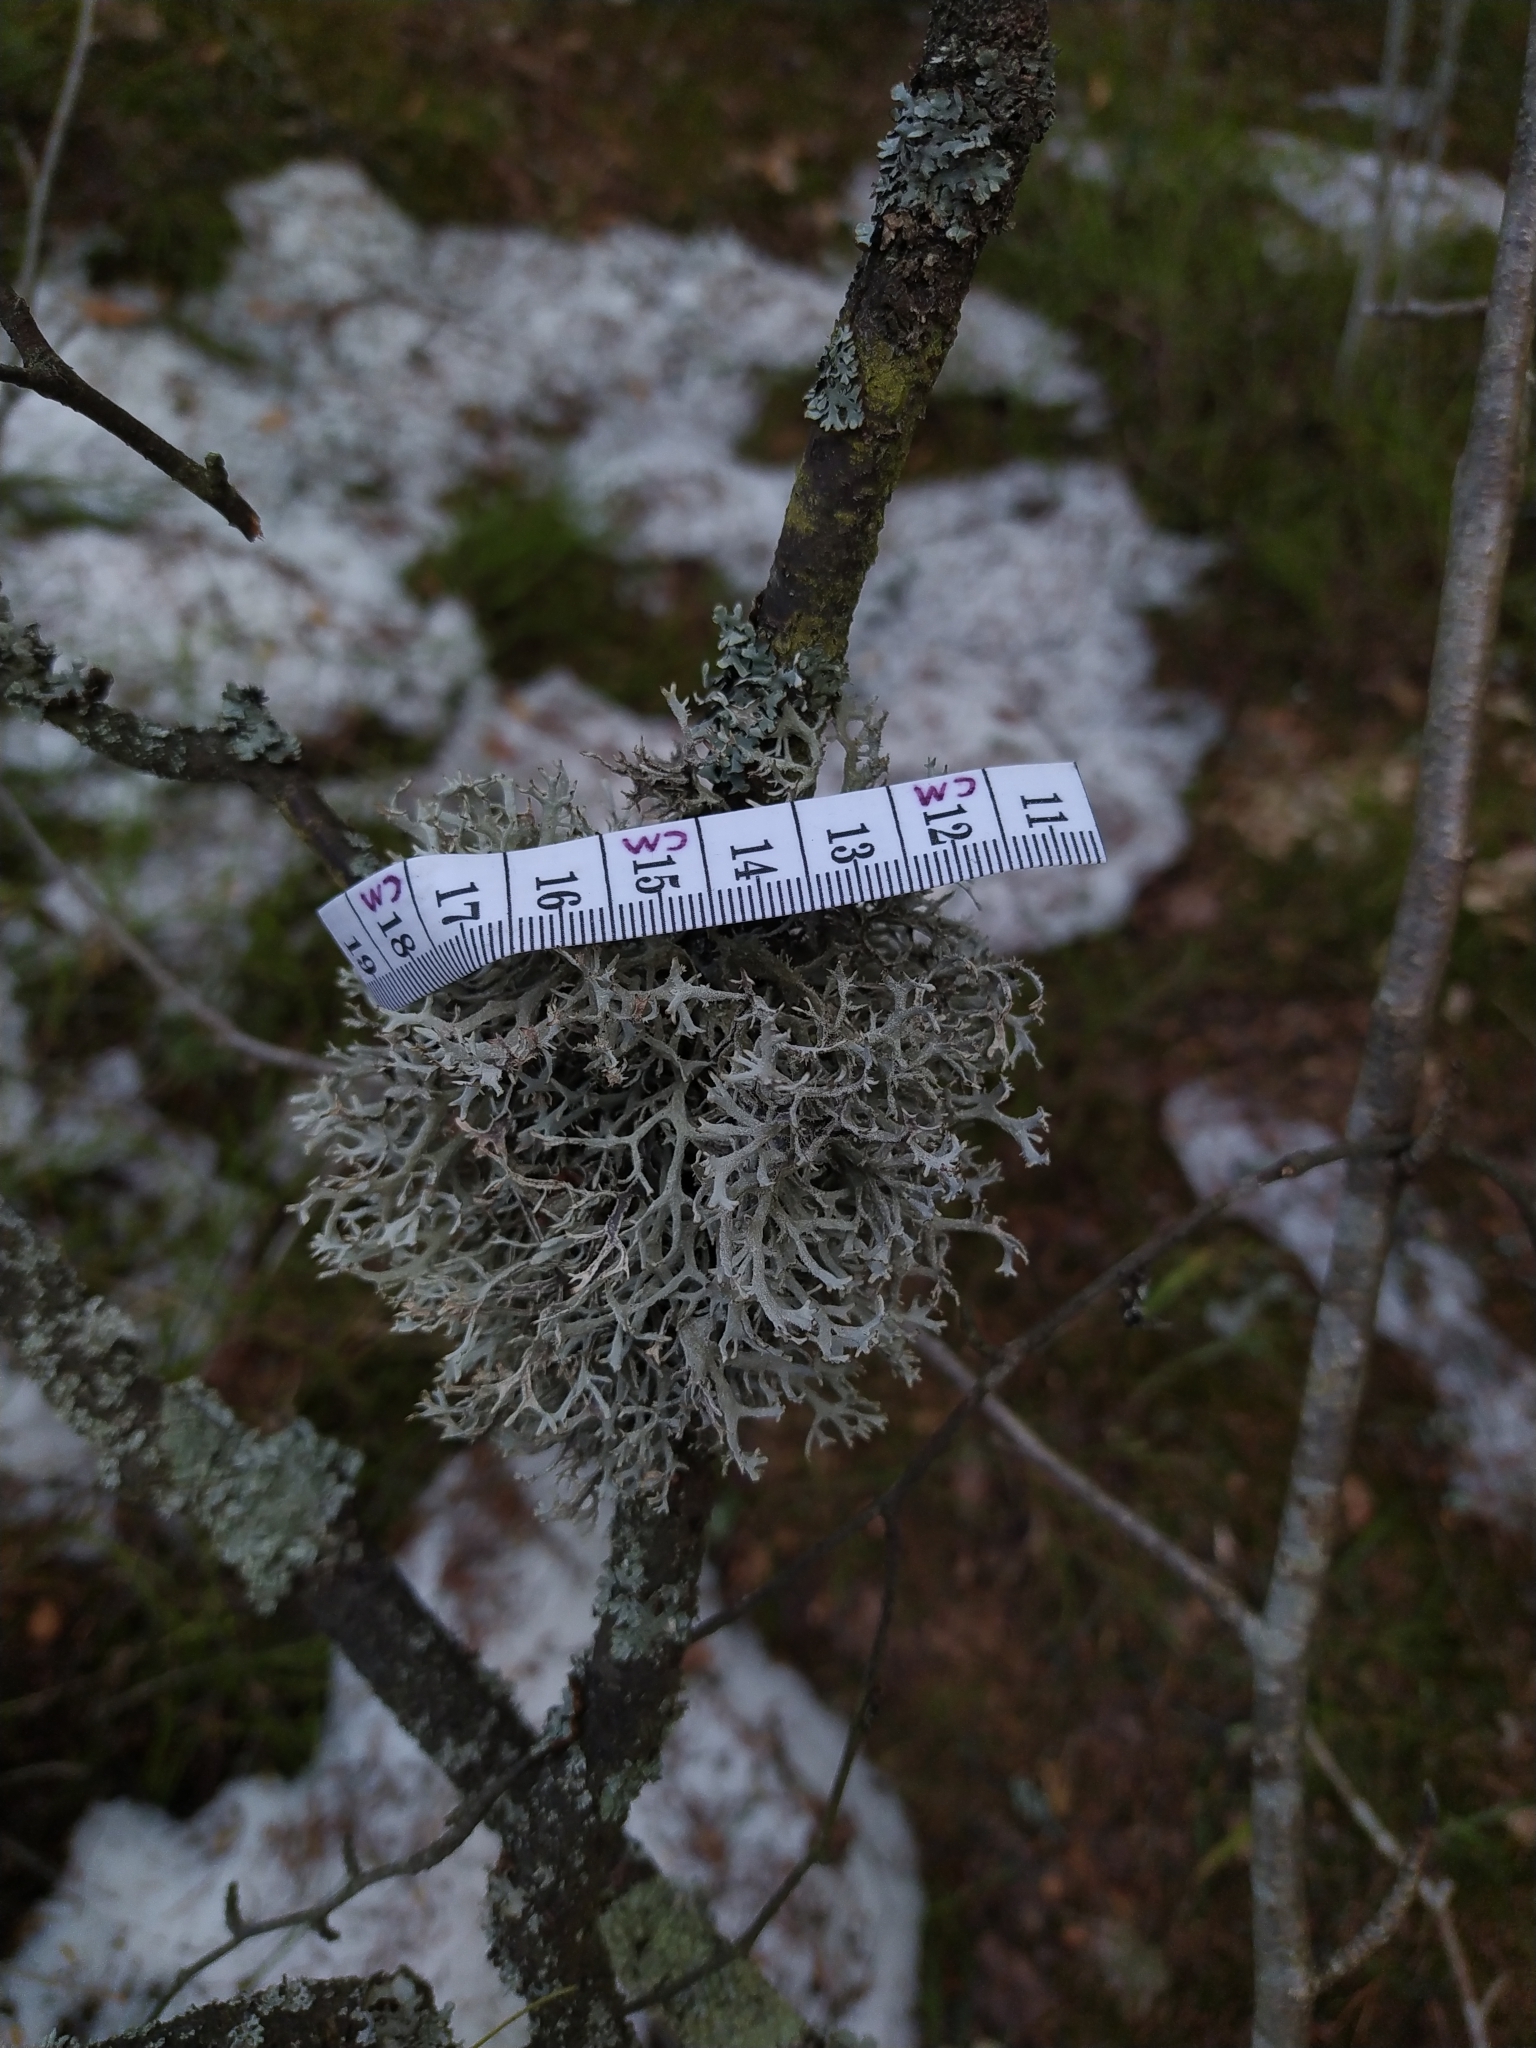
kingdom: Fungi
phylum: Ascomycota
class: Lecanoromycetes
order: Lecanorales
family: Parmeliaceae
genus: Pseudevernia
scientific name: Pseudevernia furfuracea
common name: Tree moss
